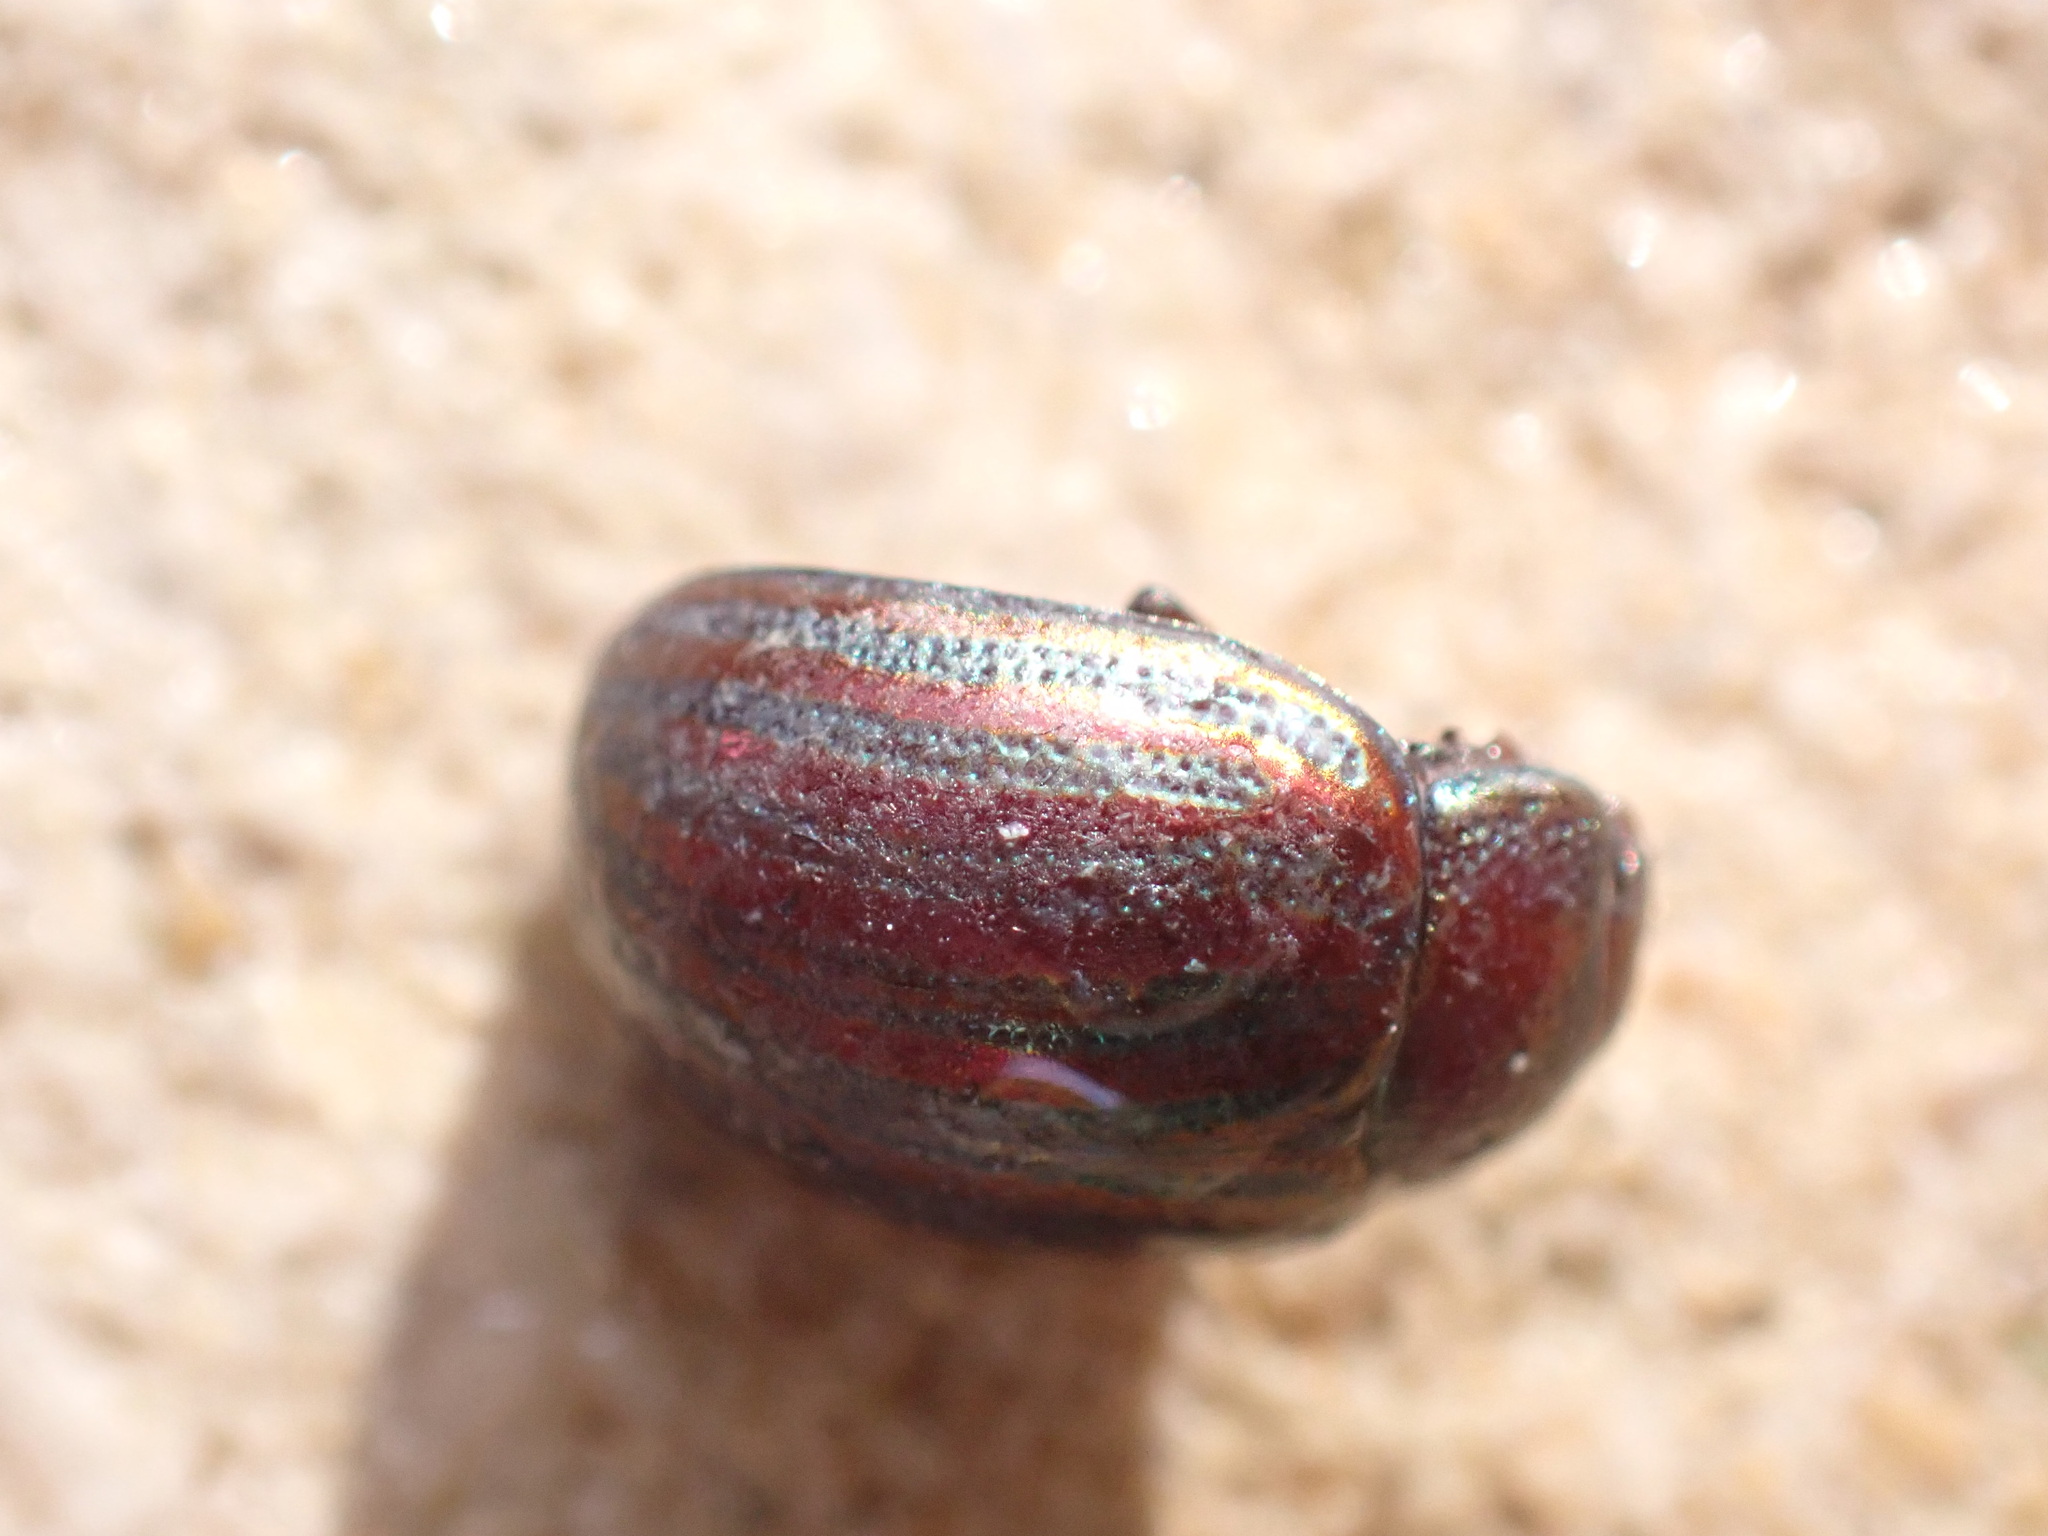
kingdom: Animalia
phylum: Arthropoda
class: Insecta
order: Coleoptera
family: Chrysomelidae
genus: Chrysolina
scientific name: Chrysolina americana
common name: Rosemary beetle
